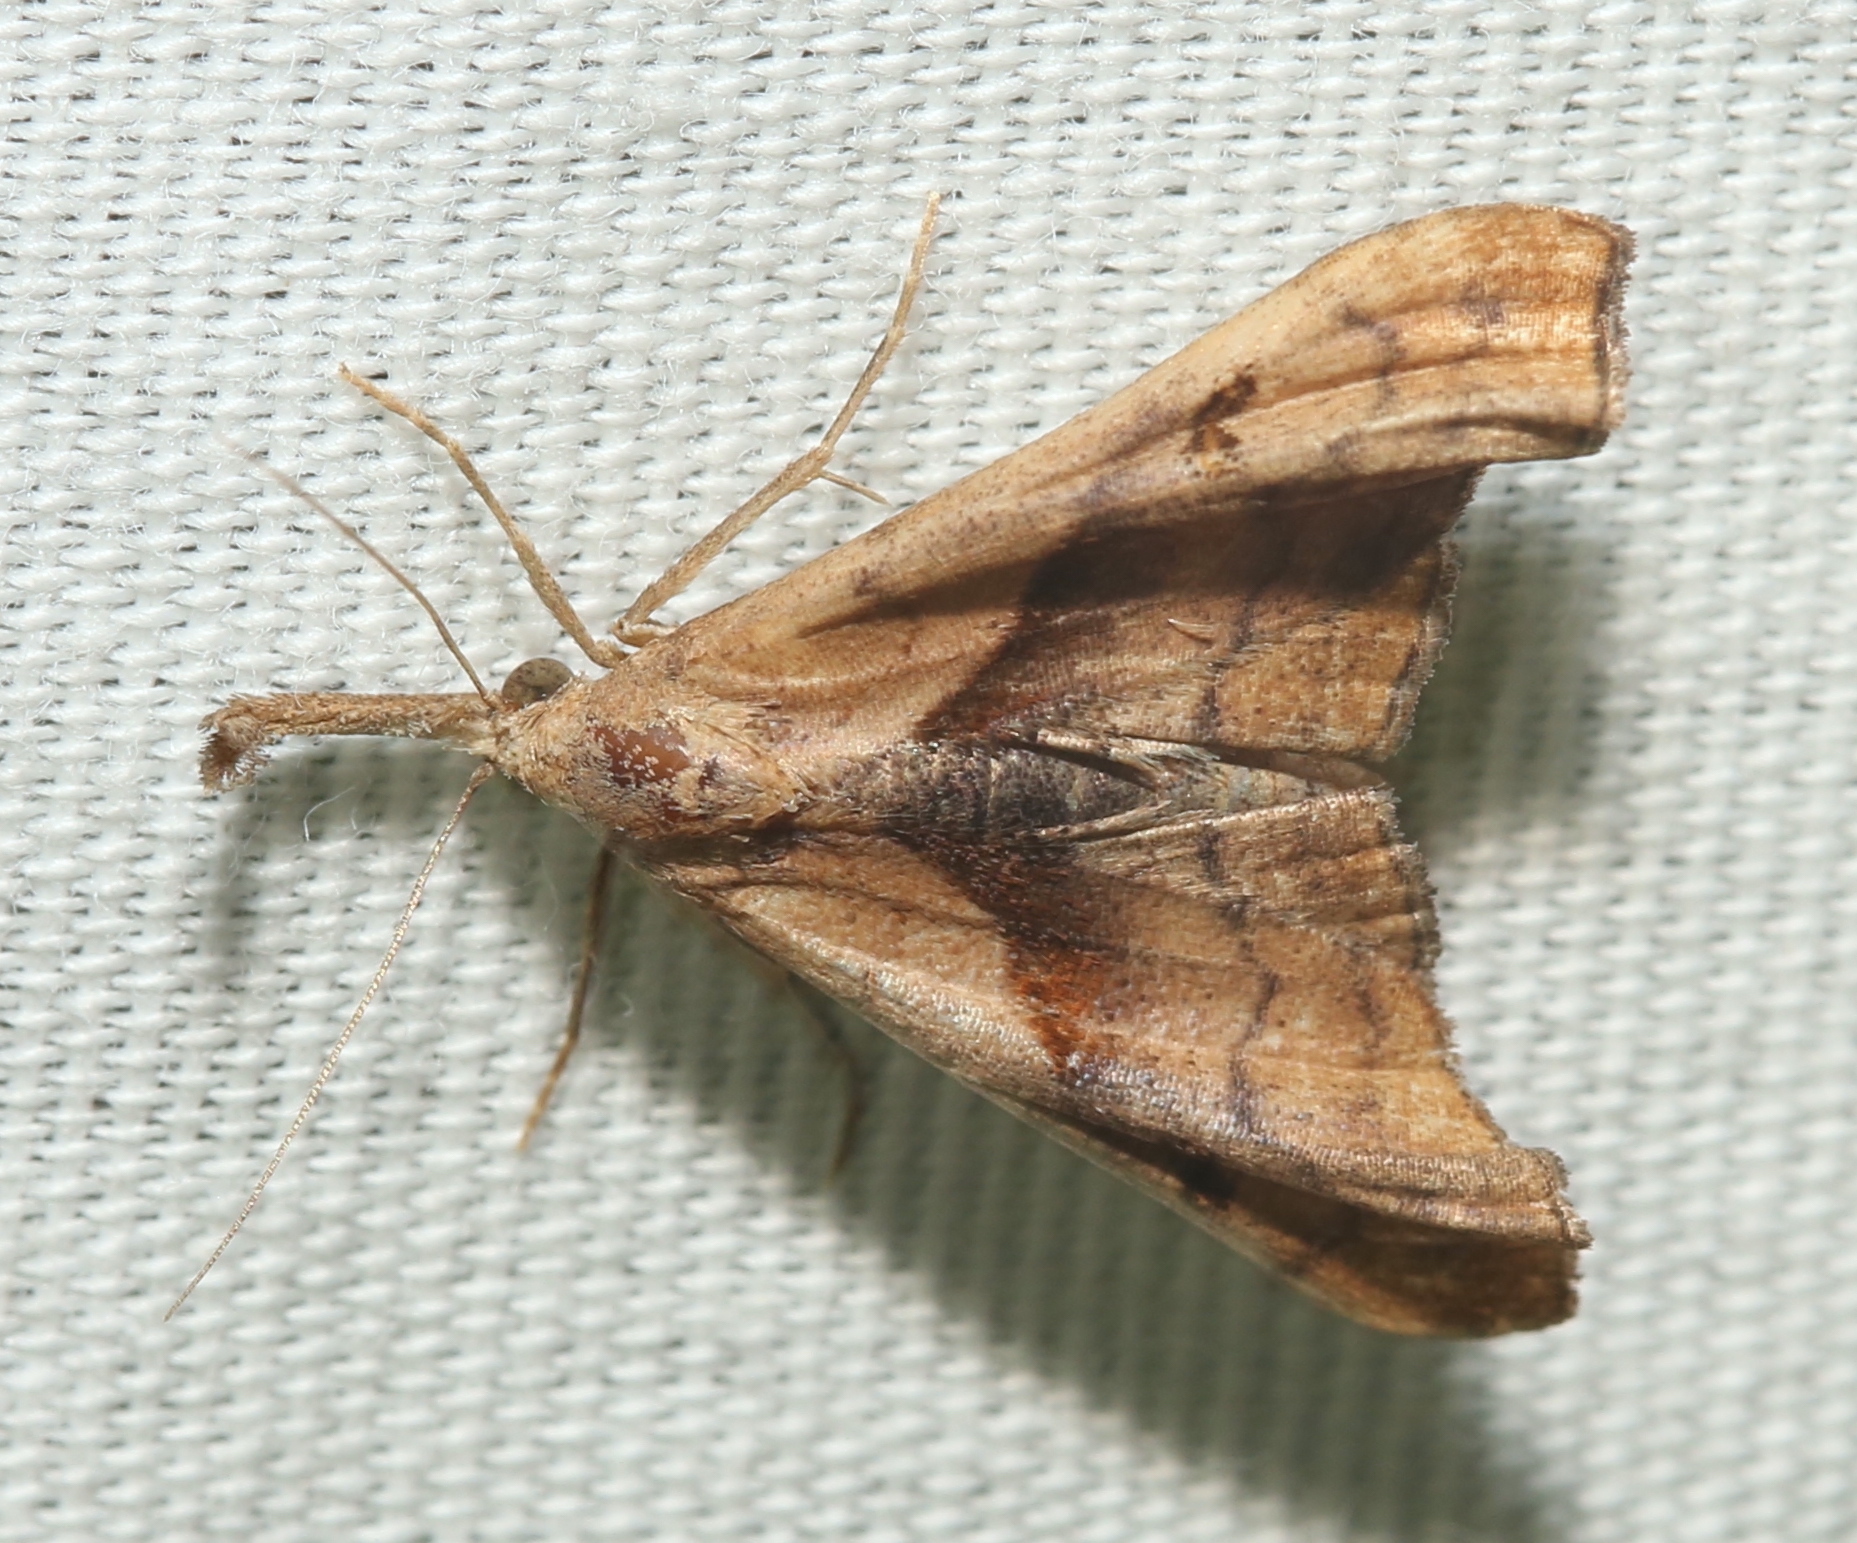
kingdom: Animalia
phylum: Arthropoda
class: Insecta
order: Lepidoptera
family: Erebidae
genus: Palthis
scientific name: Palthis angulalis
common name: Dark-spotted palthis moth
